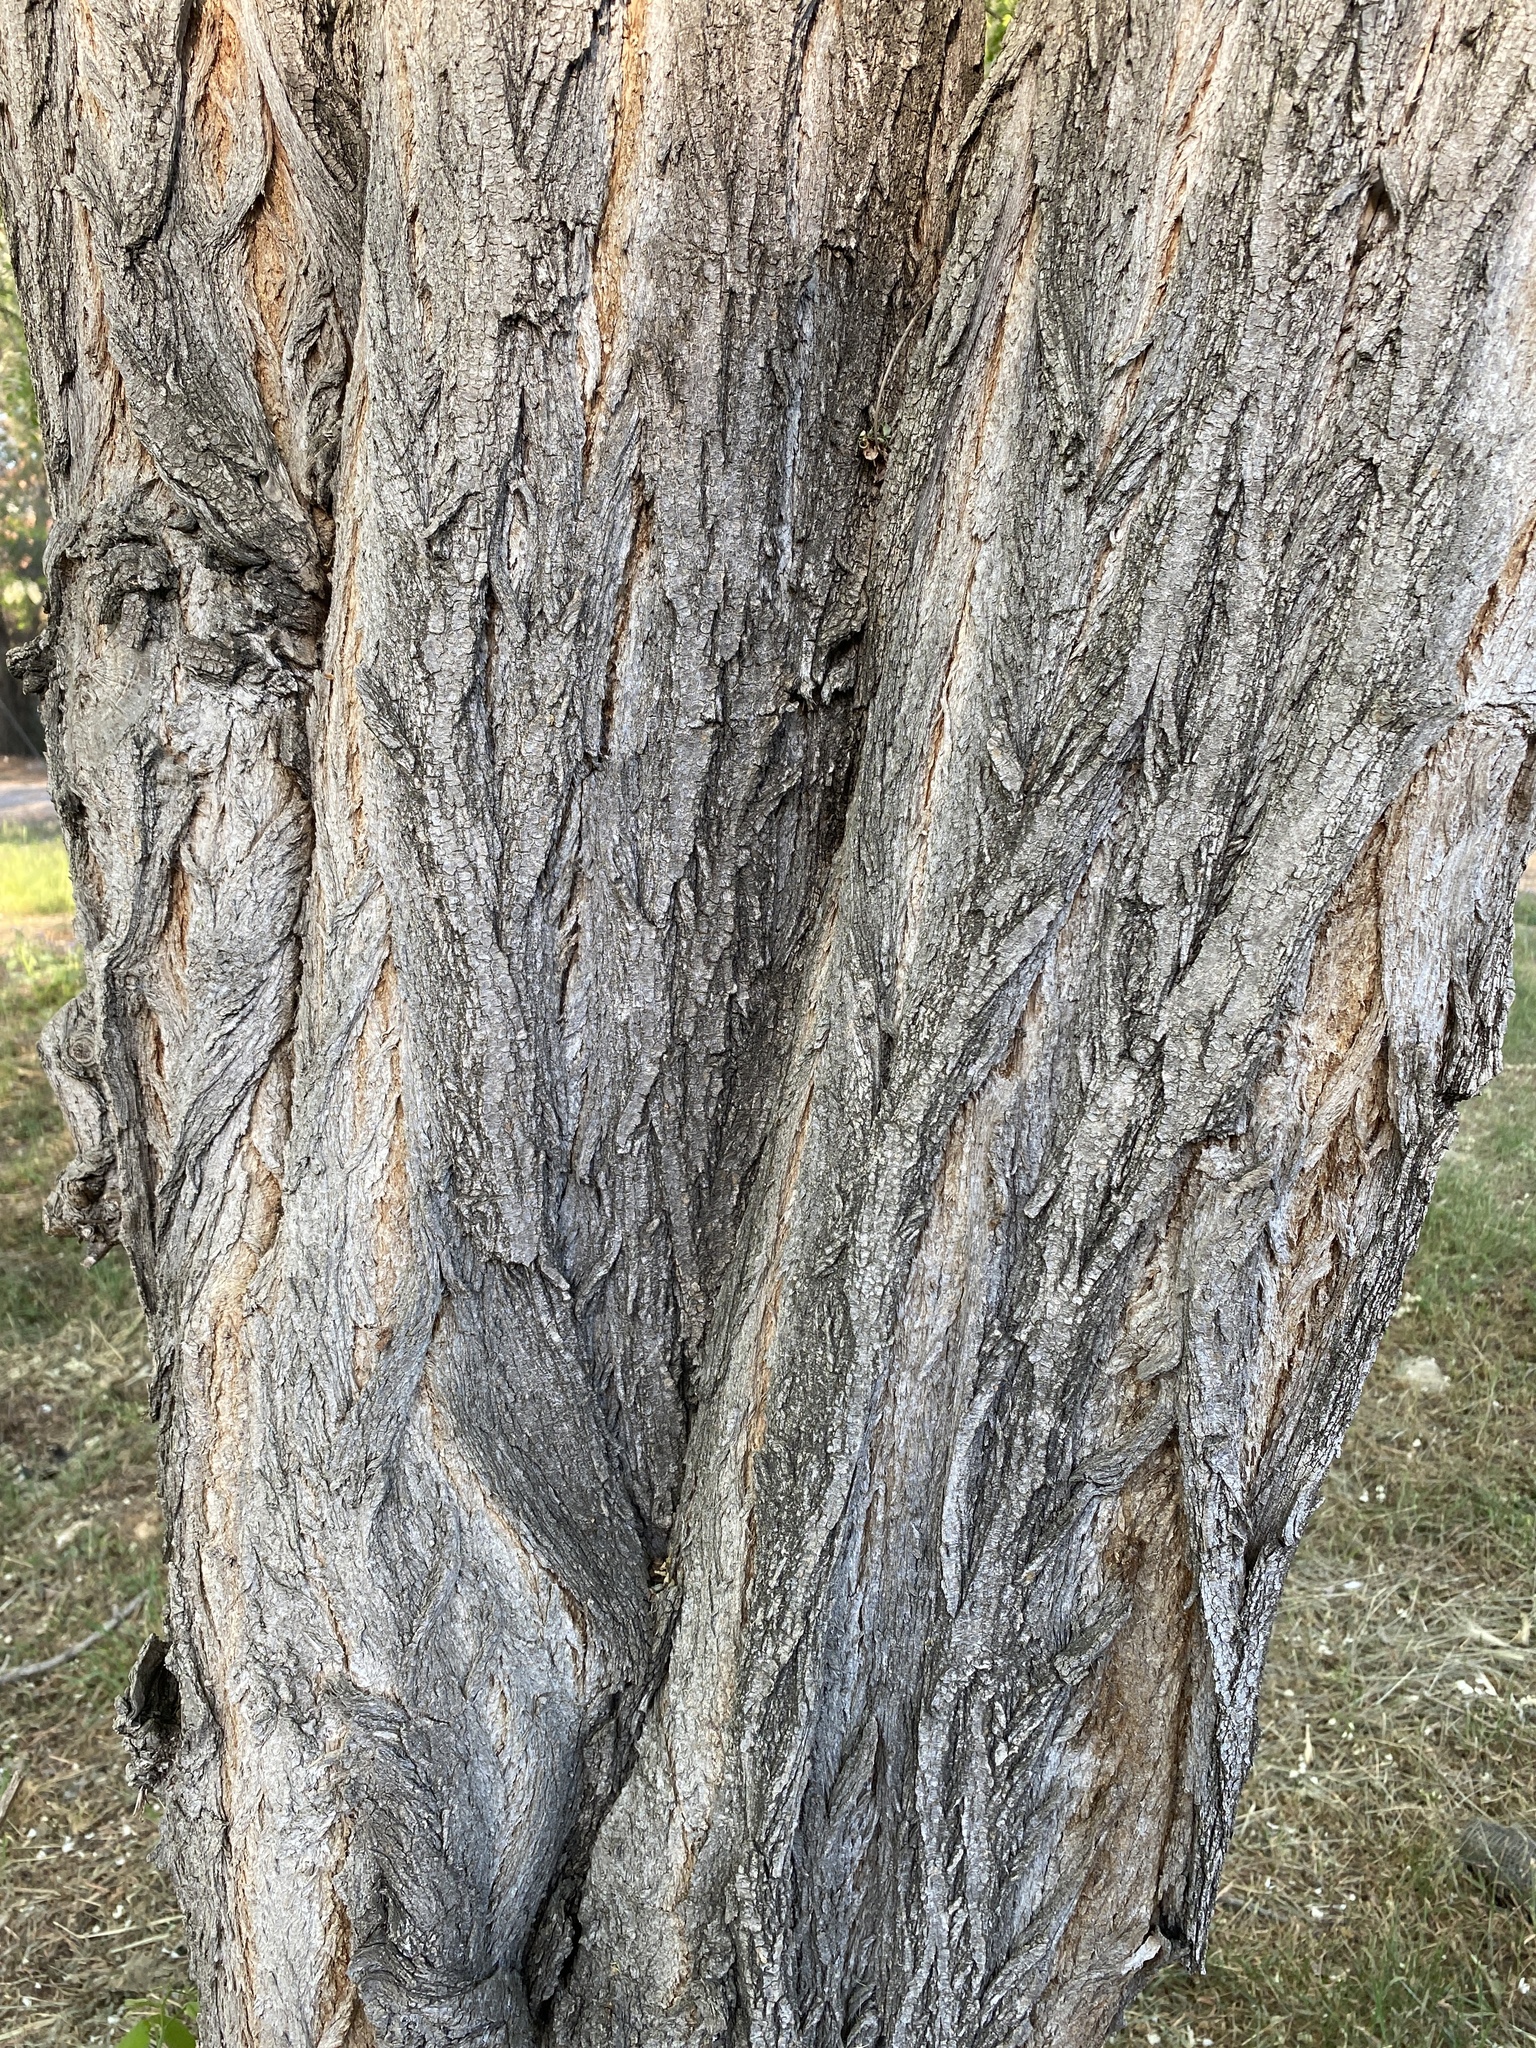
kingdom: Plantae
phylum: Tracheophyta
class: Magnoliopsida
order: Fabales
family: Fabaceae
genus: Robinia
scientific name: Robinia pseudoacacia
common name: Black locust
